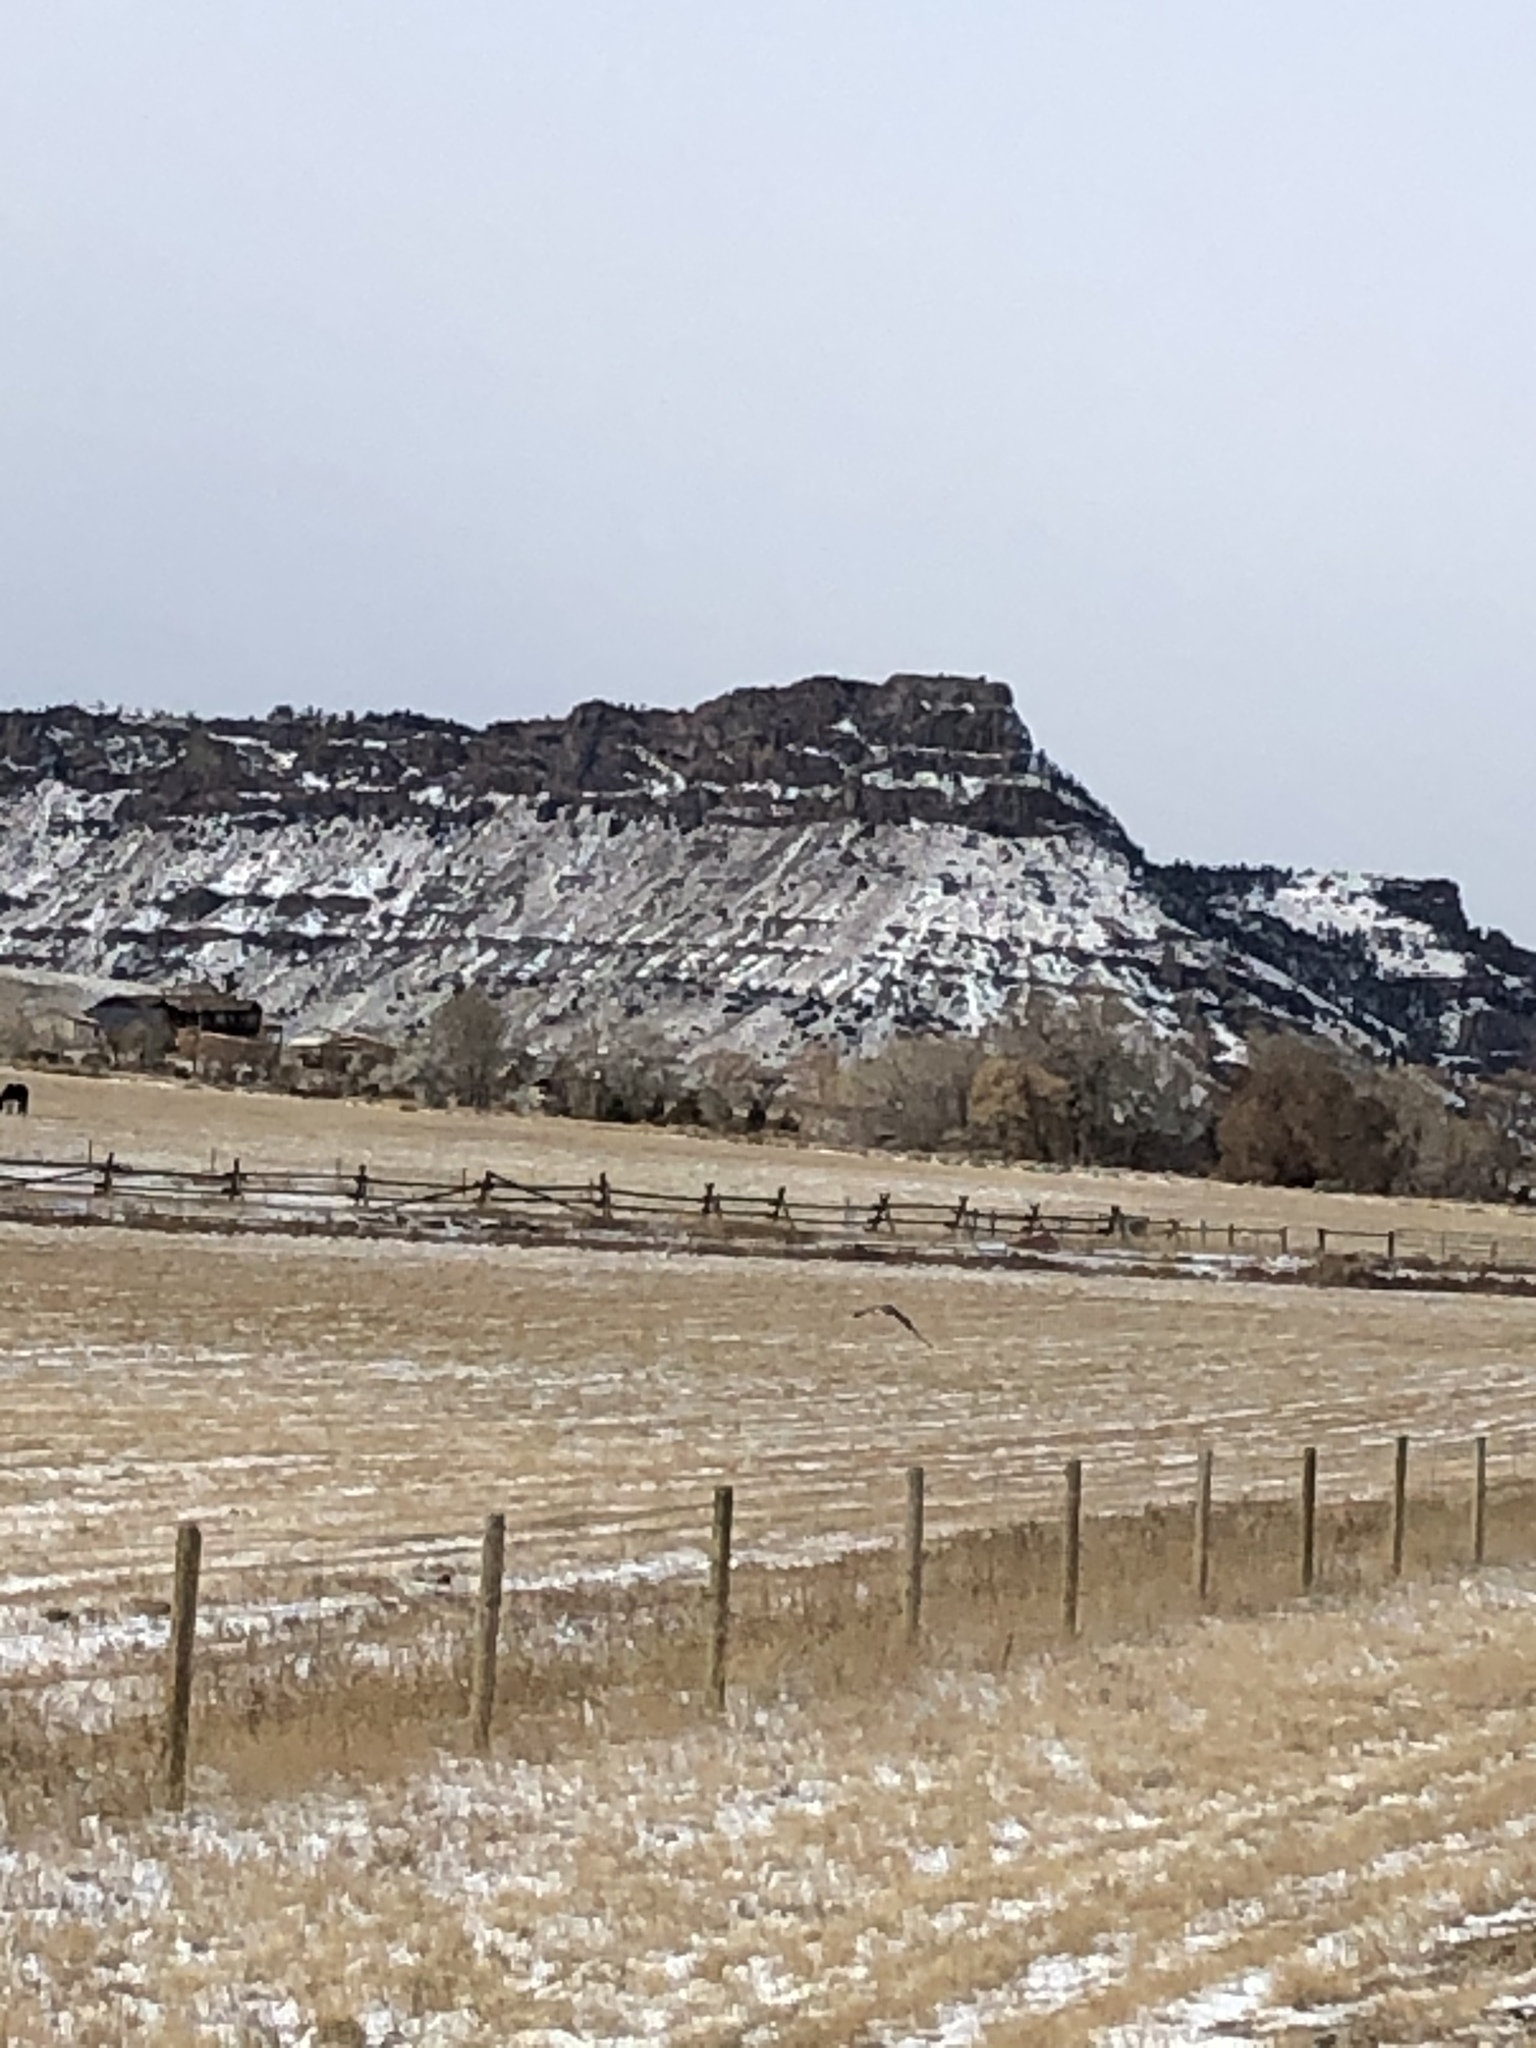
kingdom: Animalia
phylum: Chordata
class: Aves
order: Accipitriformes
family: Accipitridae
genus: Circus
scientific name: Circus cyaneus
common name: Hen harrier
